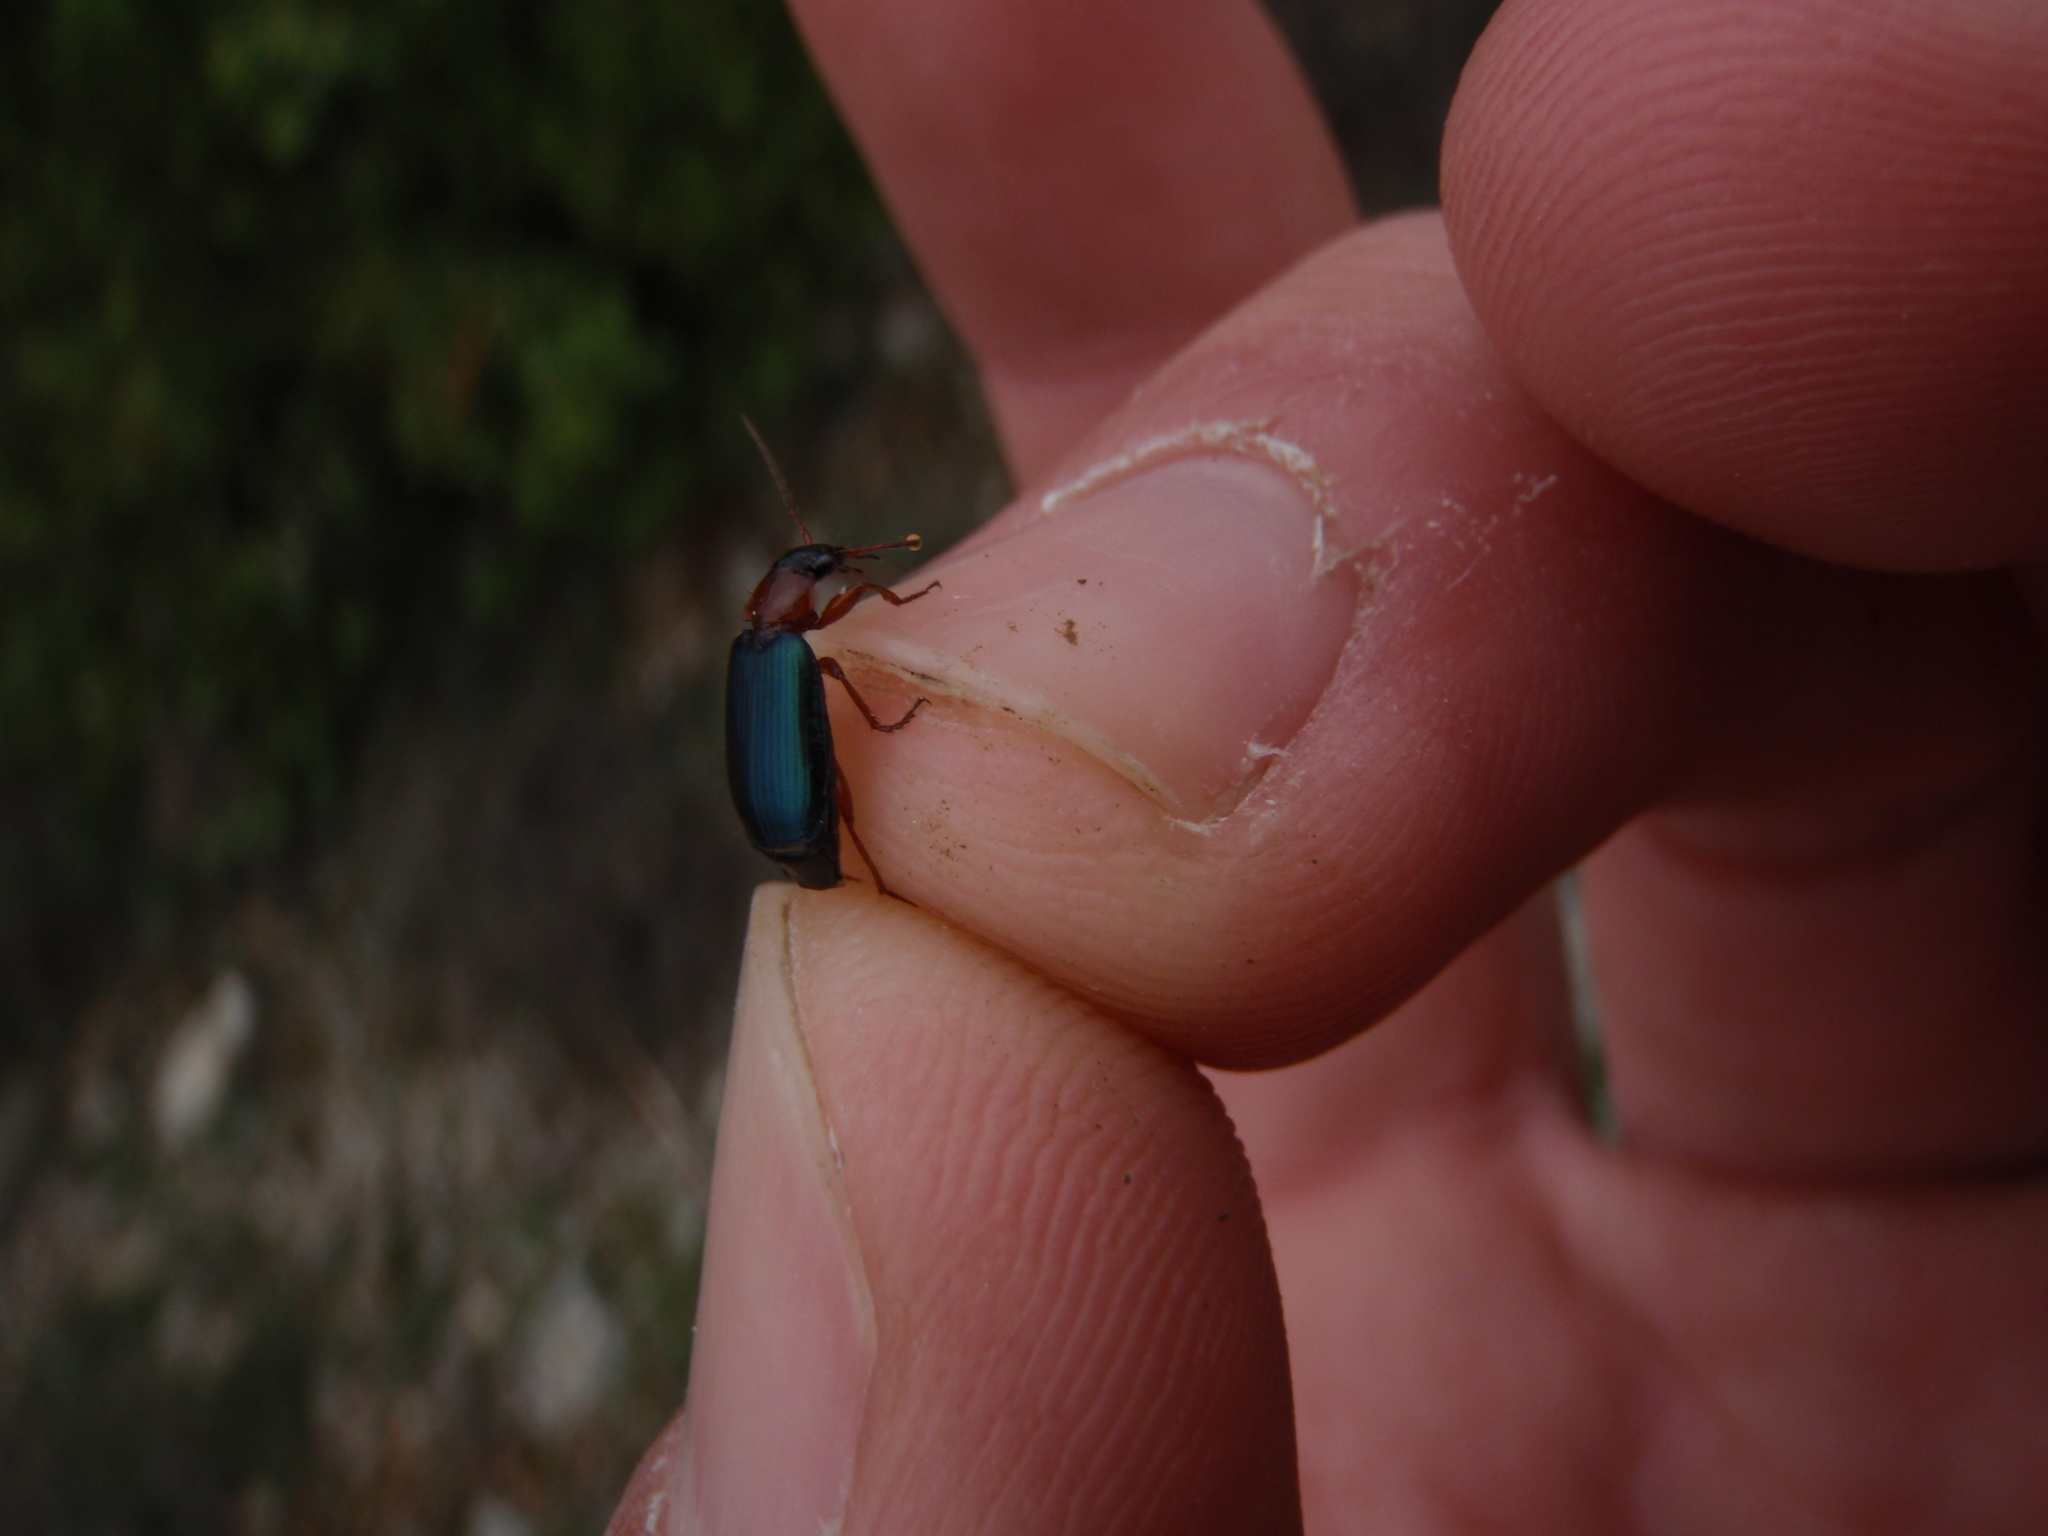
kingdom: Animalia
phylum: Arthropoda
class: Insecta
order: Coleoptera
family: Carabidae
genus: Lebia
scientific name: Lebia rufipes
